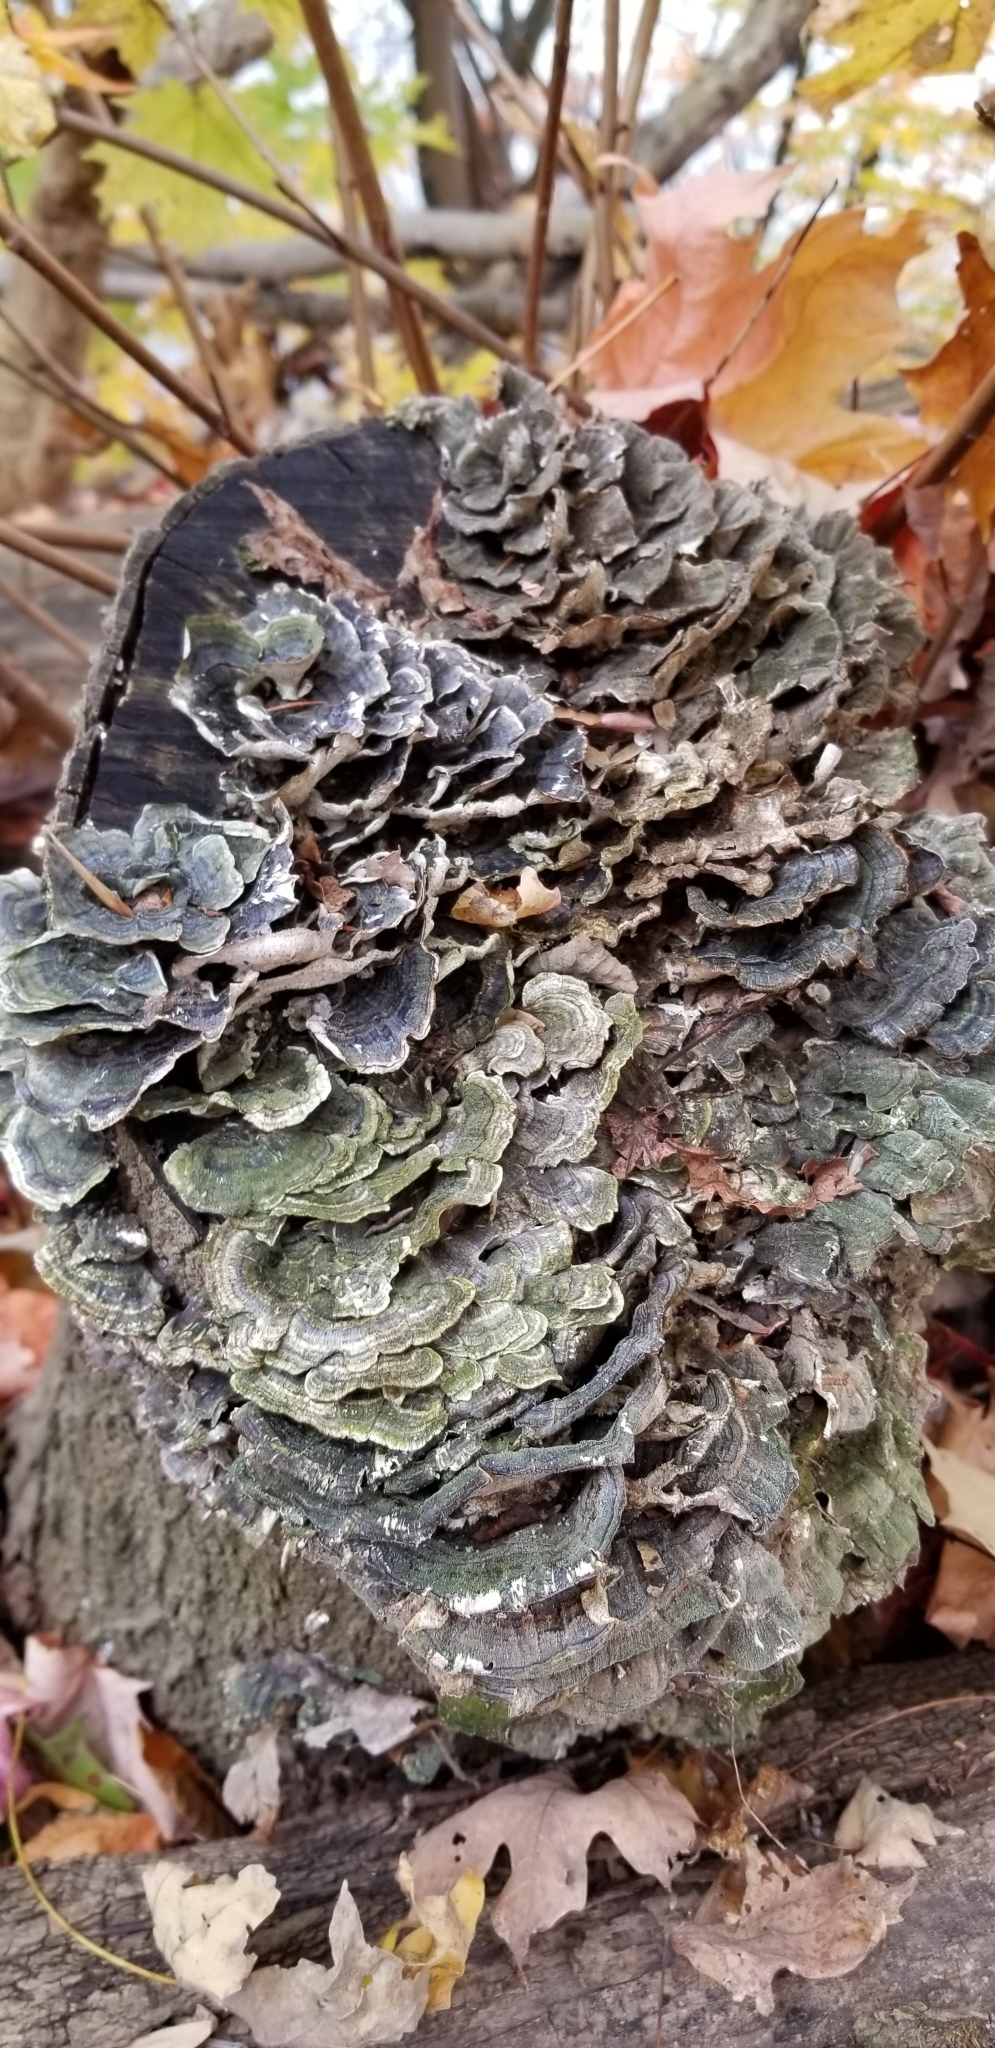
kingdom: Fungi
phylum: Basidiomycota
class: Agaricomycetes
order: Polyporales
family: Polyporaceae
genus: Trametes
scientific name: Trametes versicolor
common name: Turkeytail
